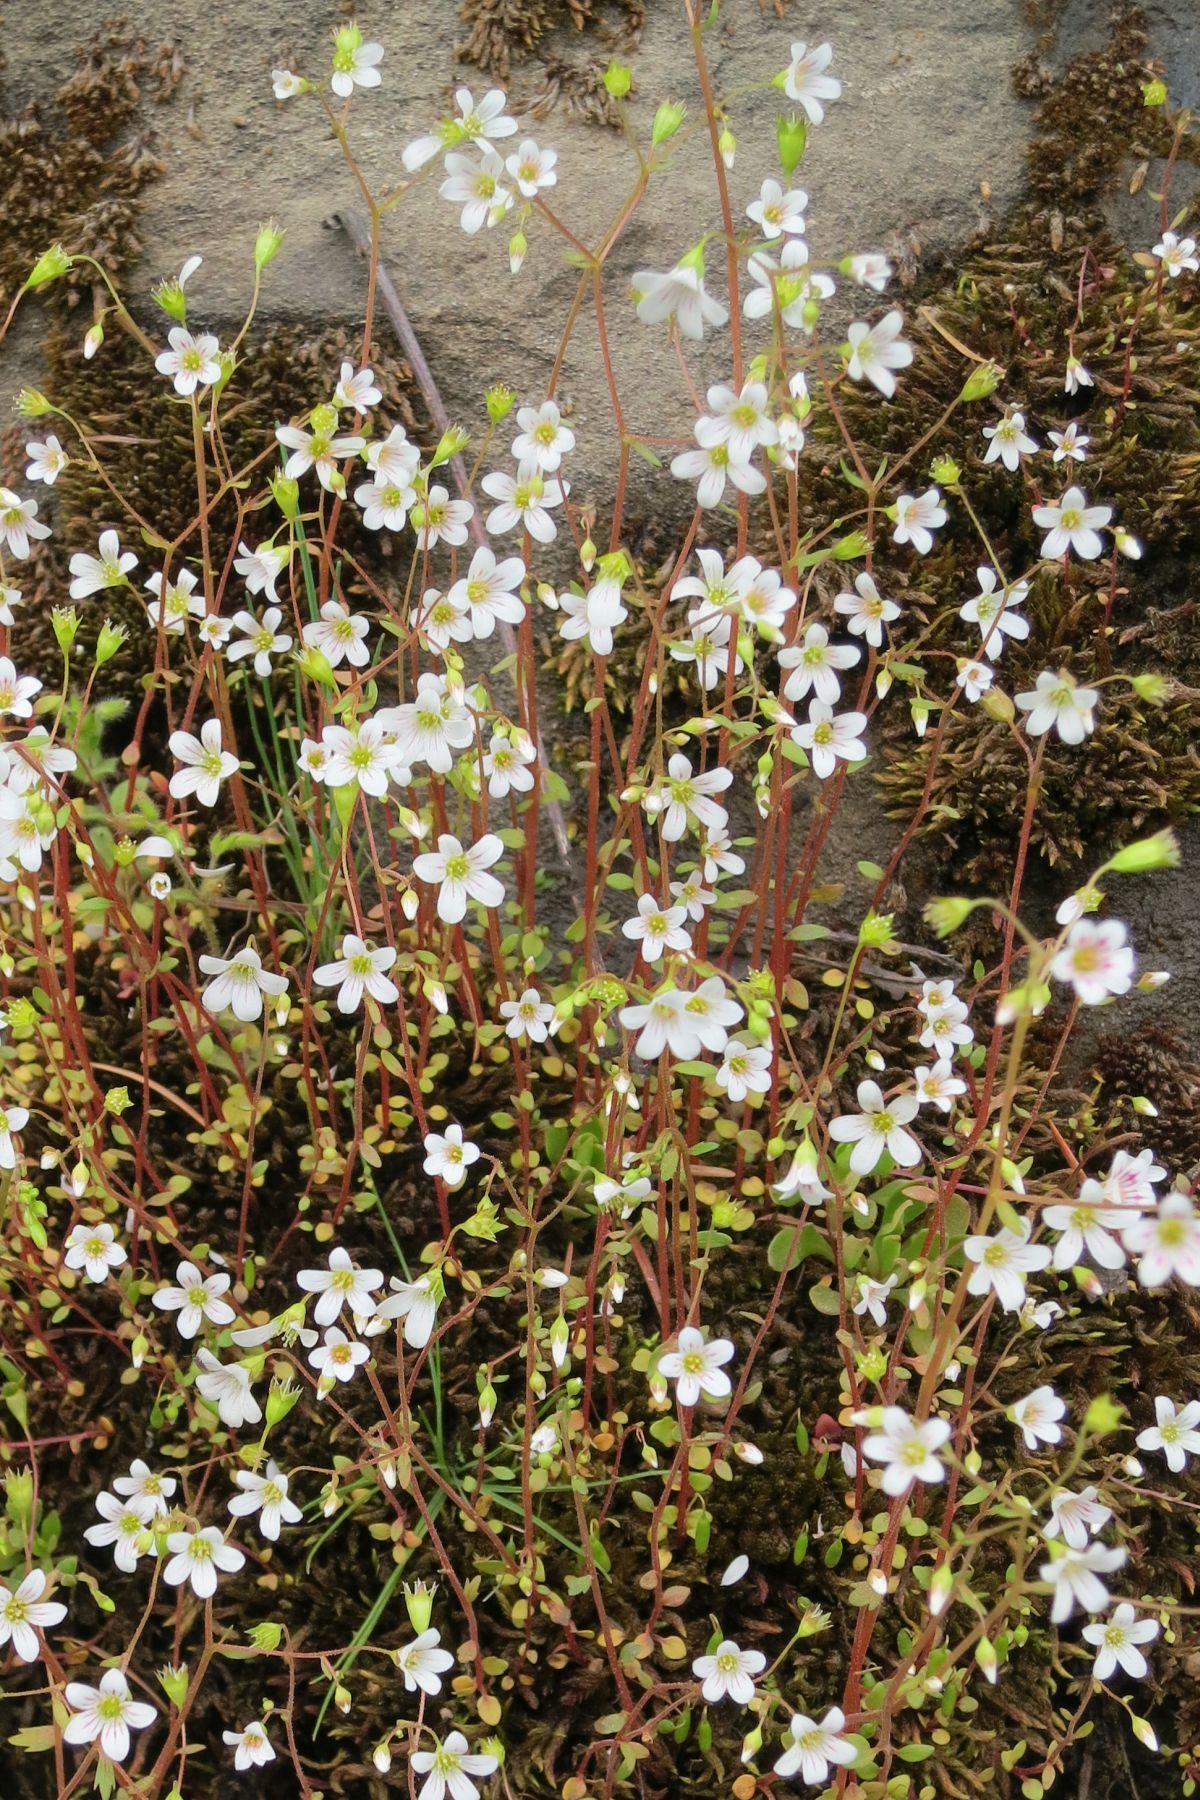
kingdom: Plantae
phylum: Tracheophyta
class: Magnoliopsida
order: Saxifragales
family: Saxifragaceae
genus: Cascadia
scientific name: Cascadia nuttallii
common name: Nuttall's saxifrage
